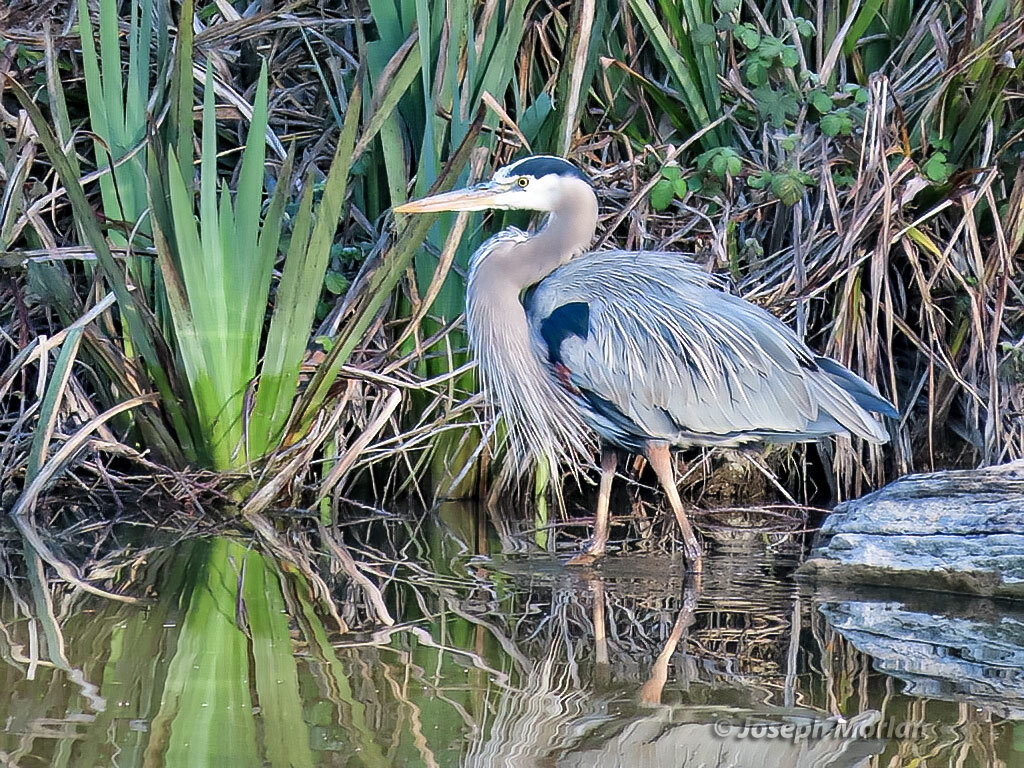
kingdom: Animalia
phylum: Chordata
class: Aves
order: Pelecaniformes
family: Ardeidae
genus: Ardea
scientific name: Ardea herodias
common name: Great blue heron
